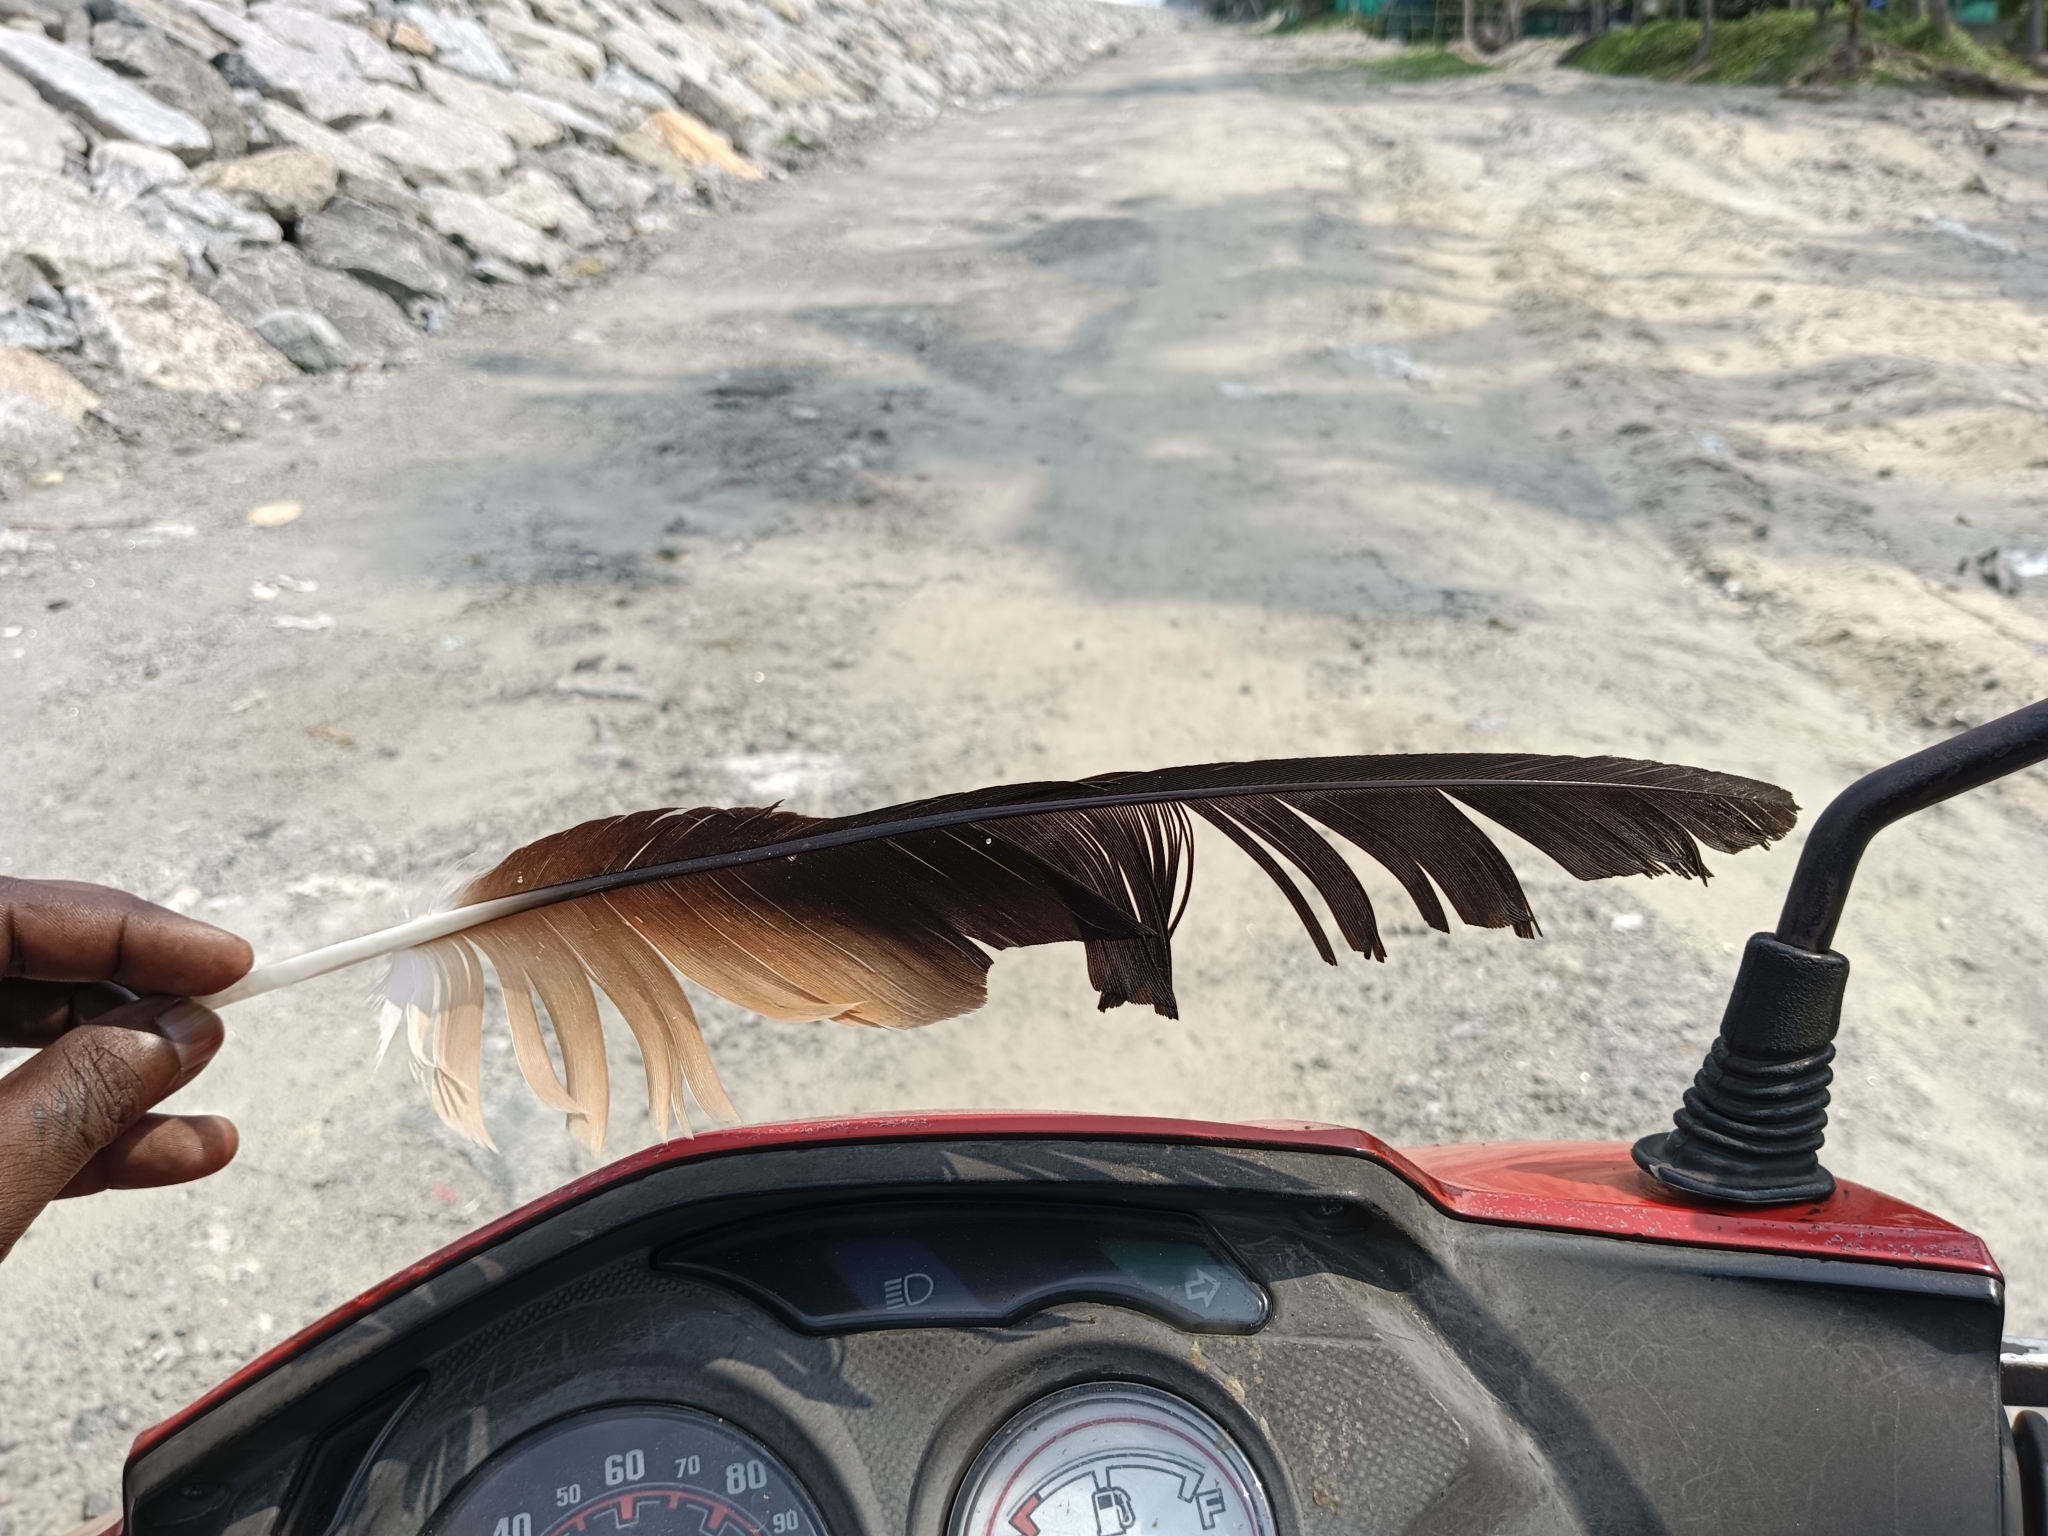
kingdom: Animalia
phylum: Chordata
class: Aves
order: Accipitriformes
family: Accipitridae
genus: Haliastur
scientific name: Haliastur indus
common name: Brahminy kite
